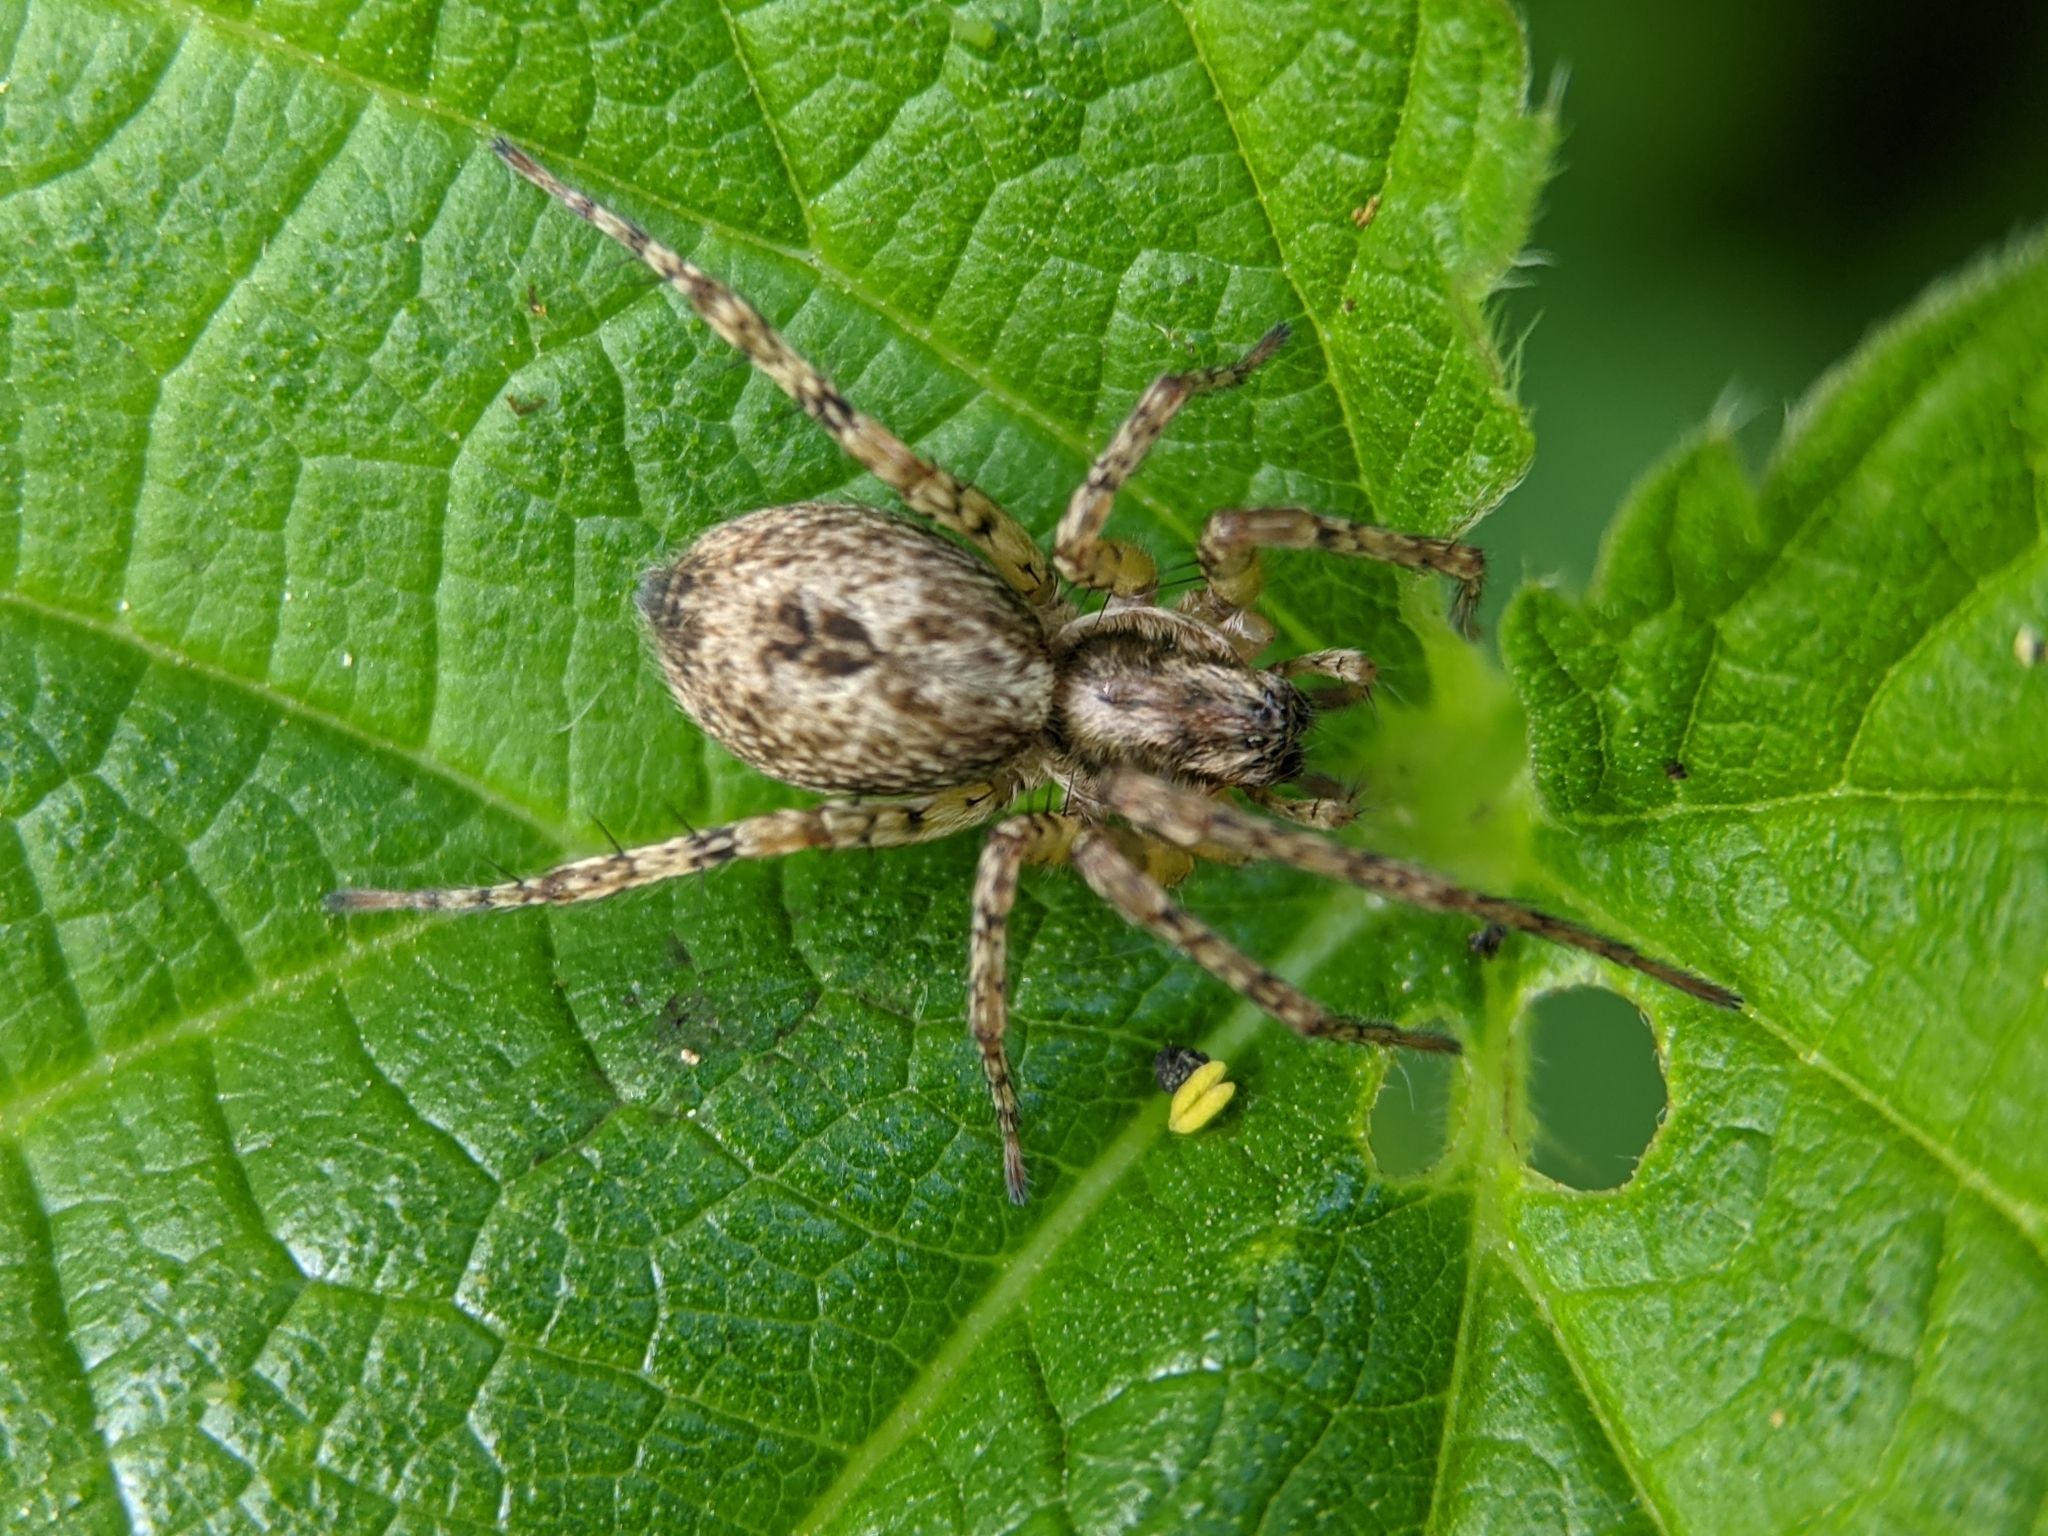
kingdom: Animalia
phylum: Arthropoda
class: Arachnida
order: Araneae
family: Anyphaenidae
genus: Anyphaena
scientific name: Anyphaena accentuata
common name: Buzzing spider
